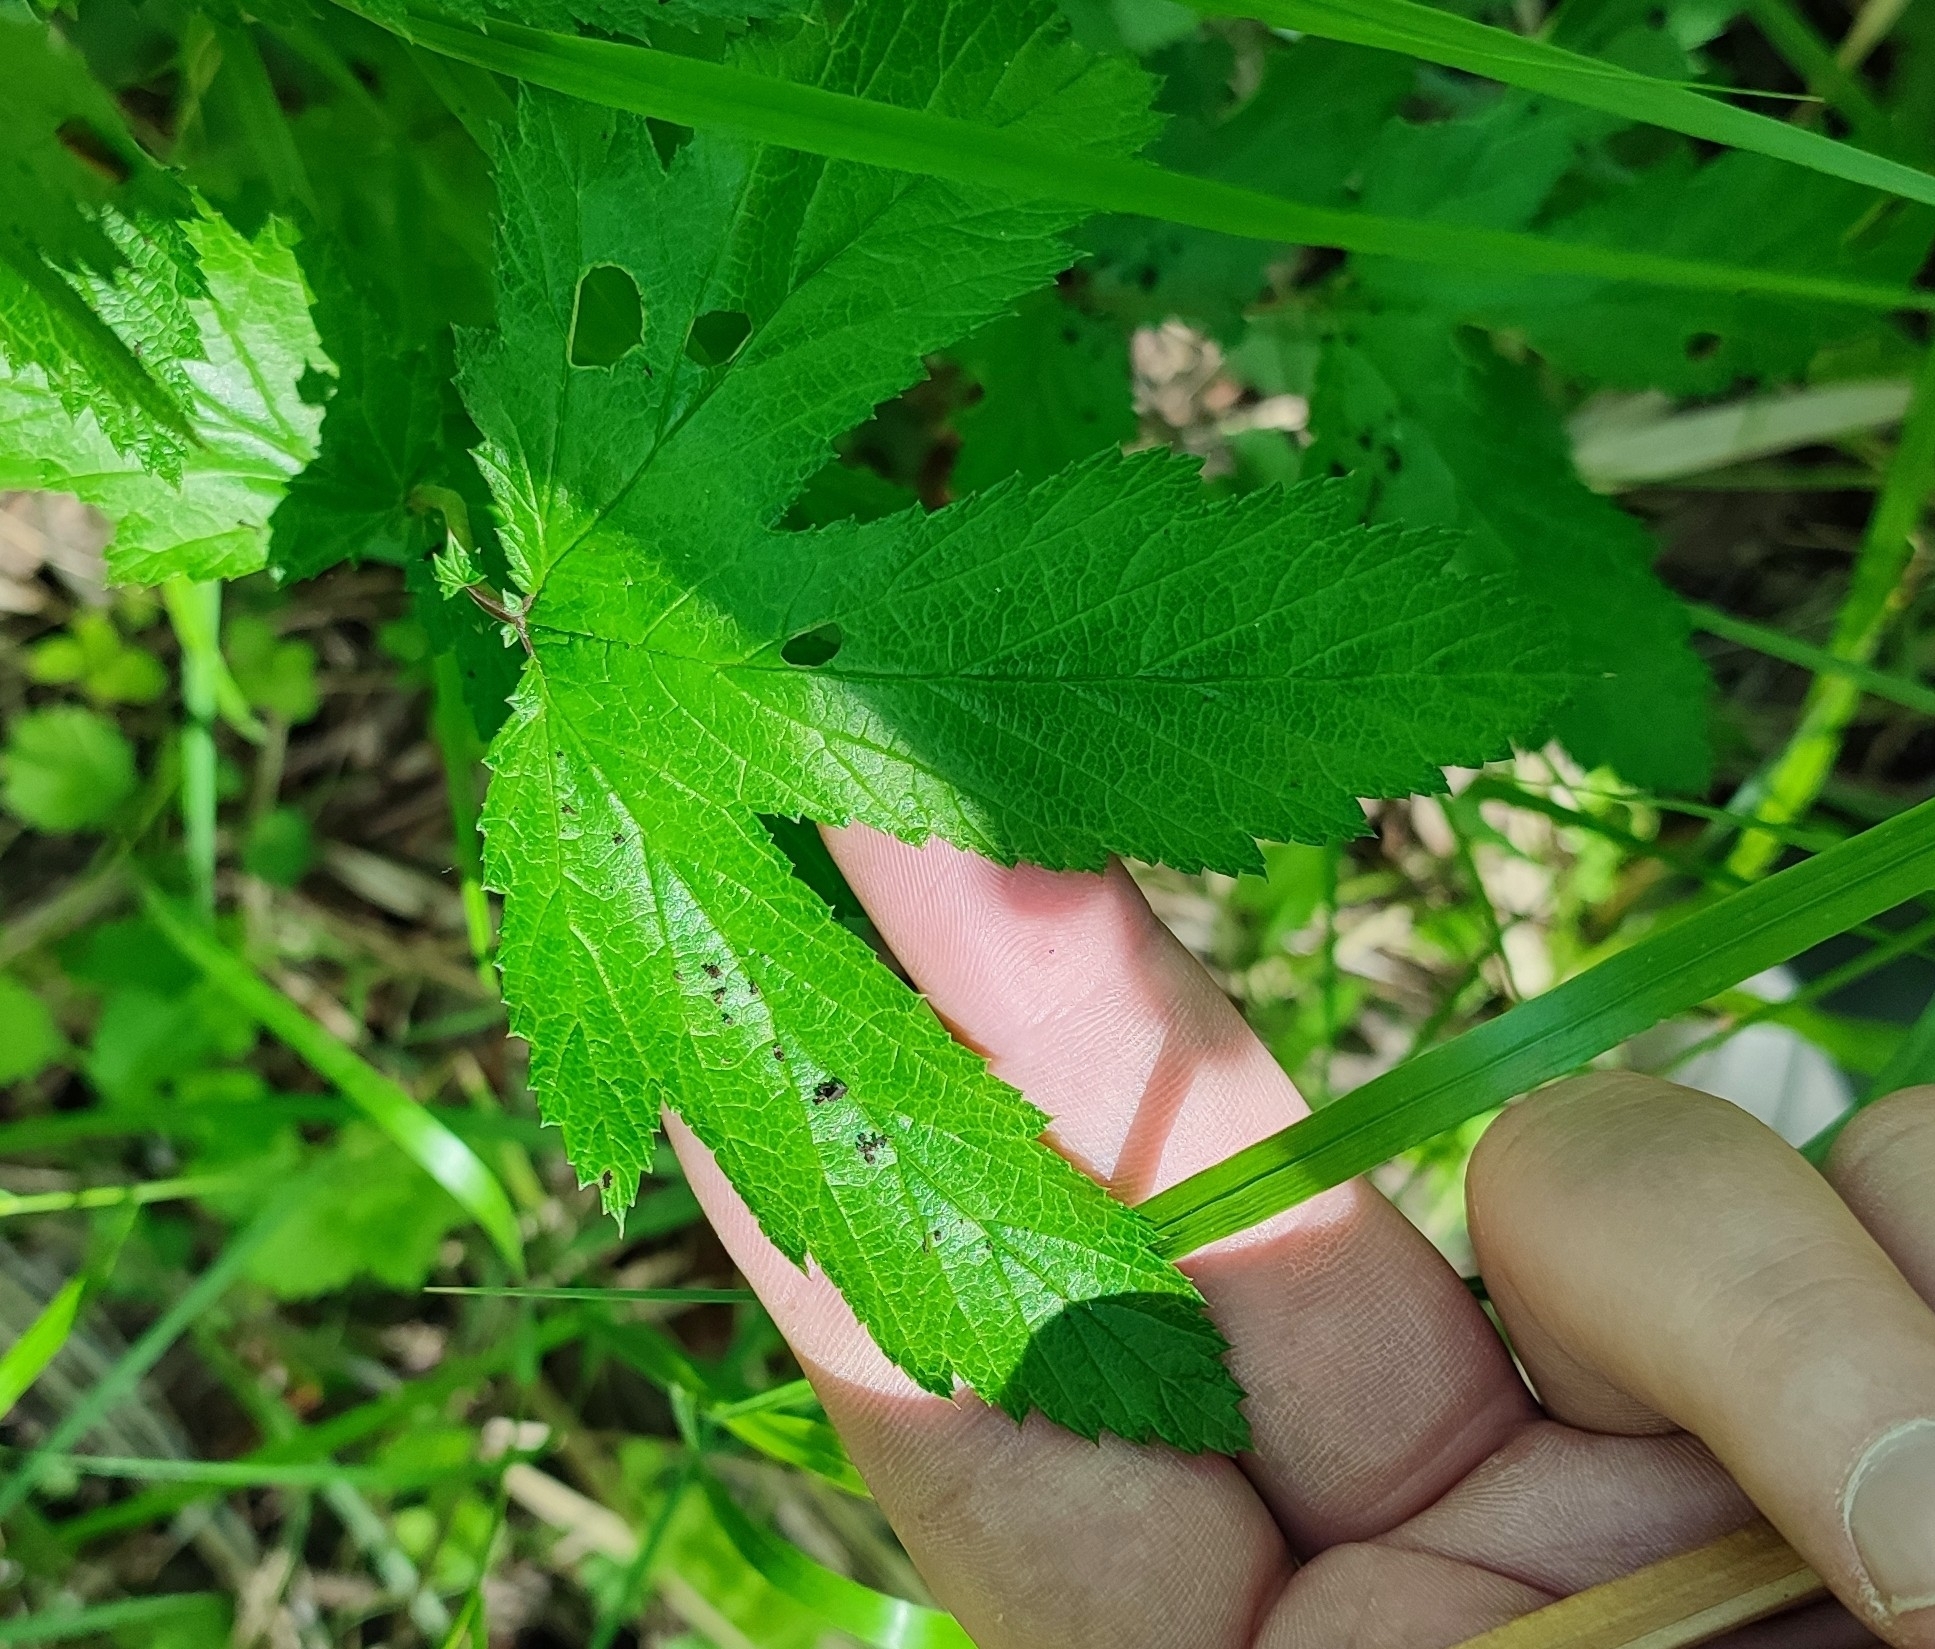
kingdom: Plantae
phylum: Tracheophyta
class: Magnoliopsida
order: Rosales
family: Rosaceae
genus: Filipendula
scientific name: Filipendula ulmaria
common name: Meadowsweet
